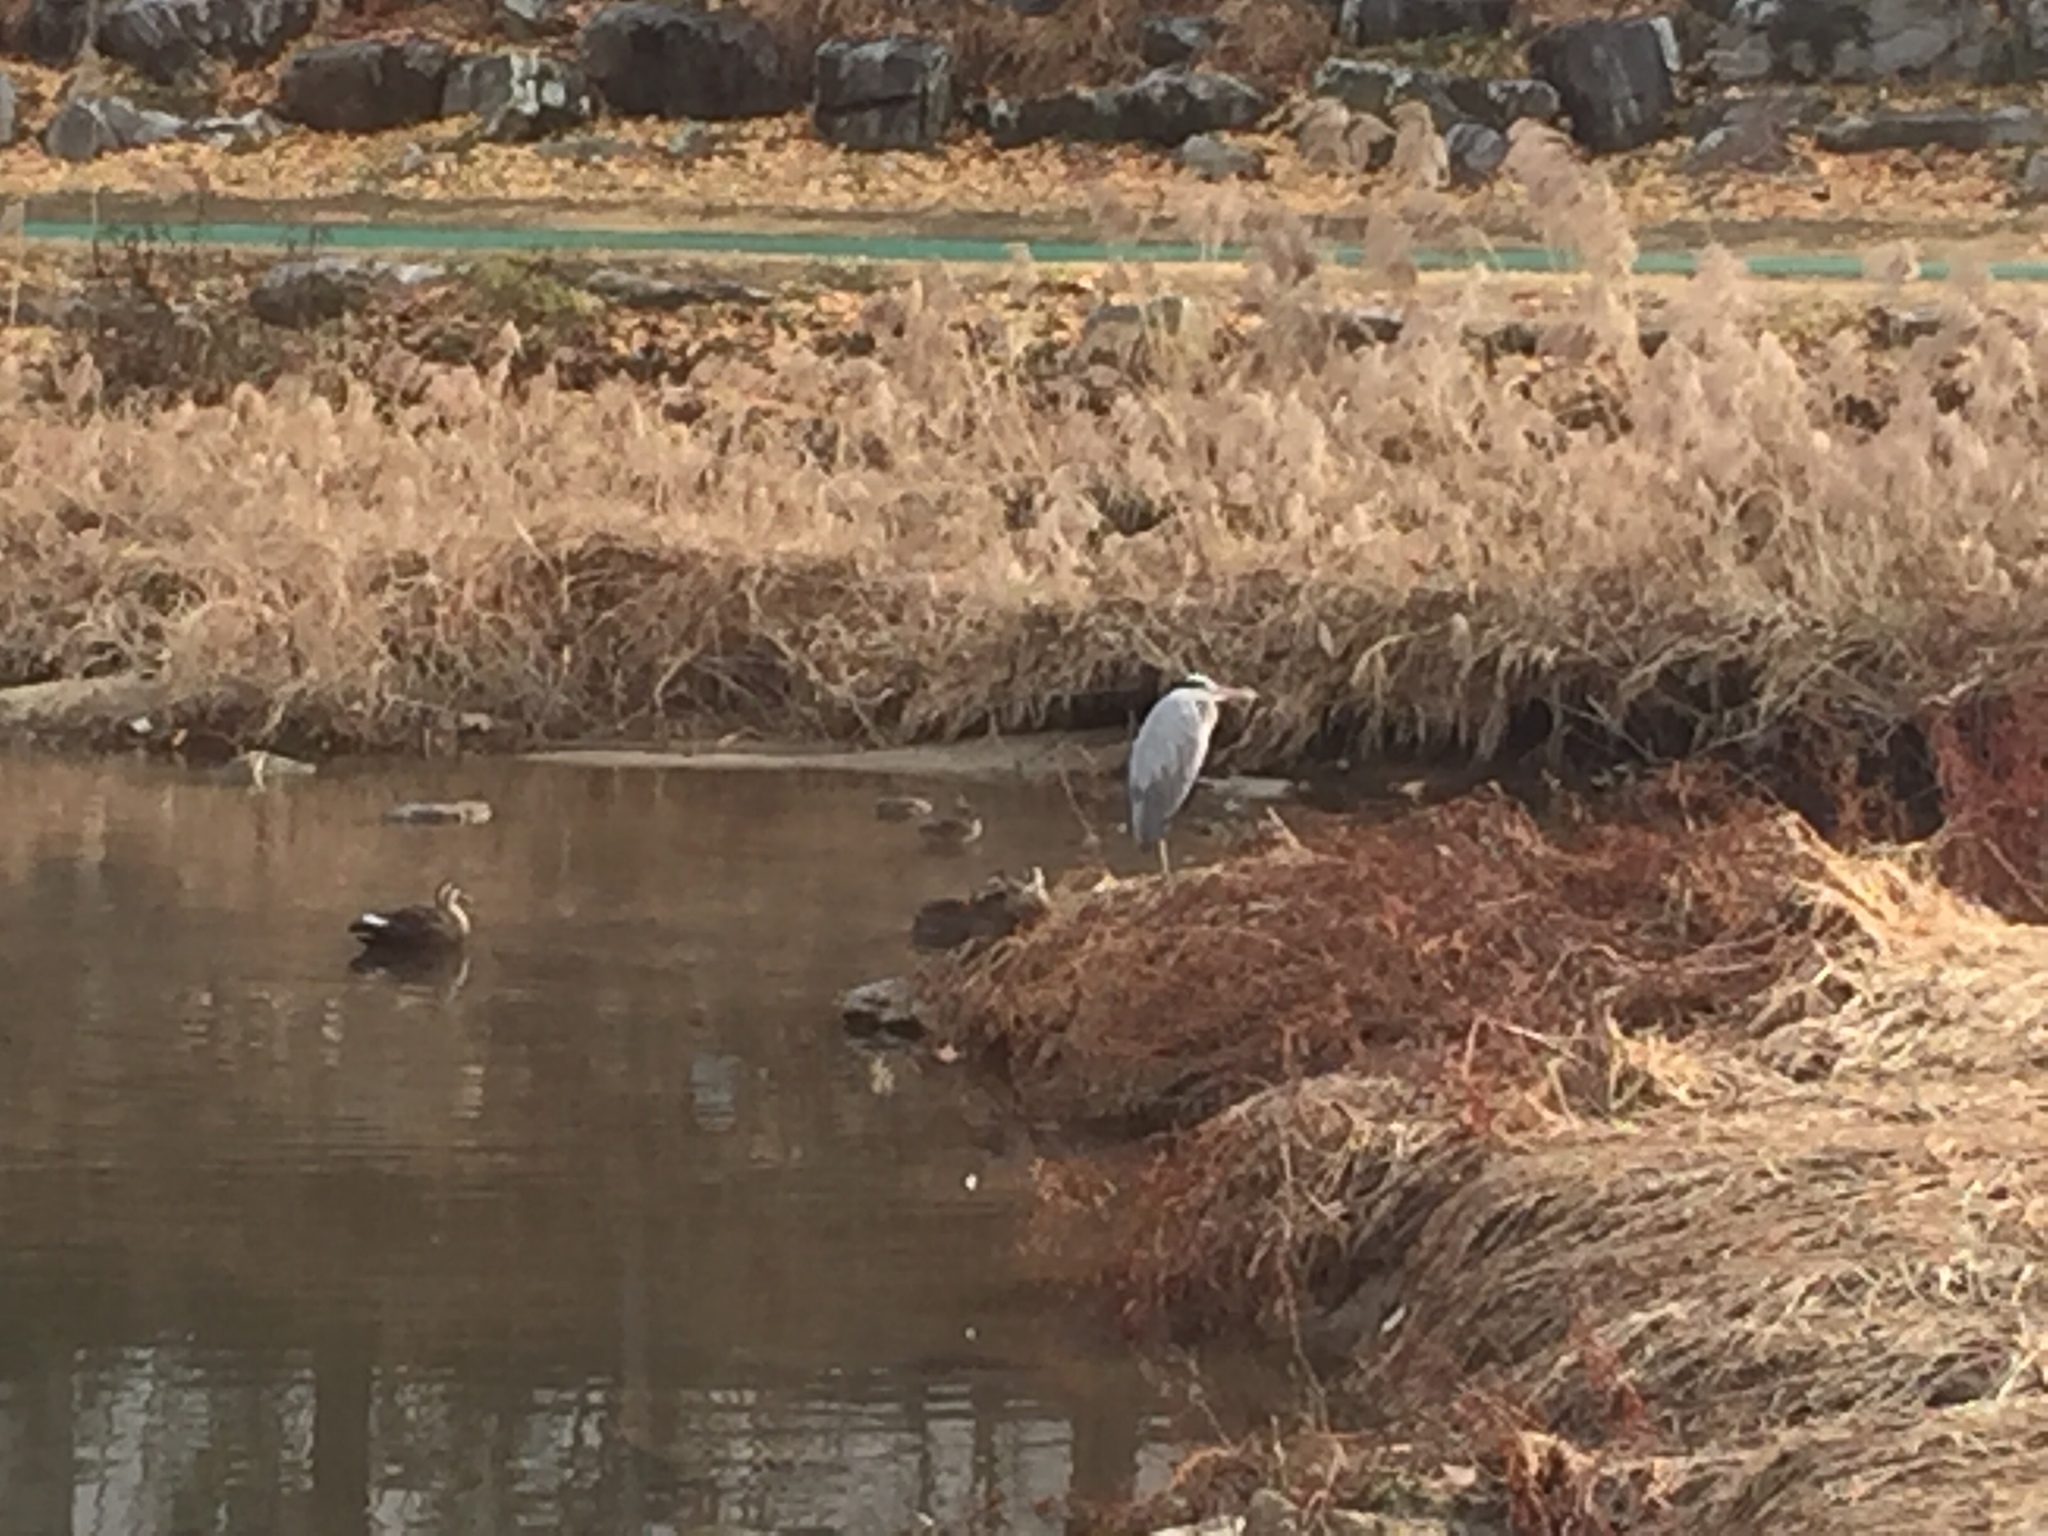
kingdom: Animalia
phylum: Chordata
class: Aves
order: Pelecaniformes
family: Ardeidae
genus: Ardea
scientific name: Ardea cinerea
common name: Grey heron
